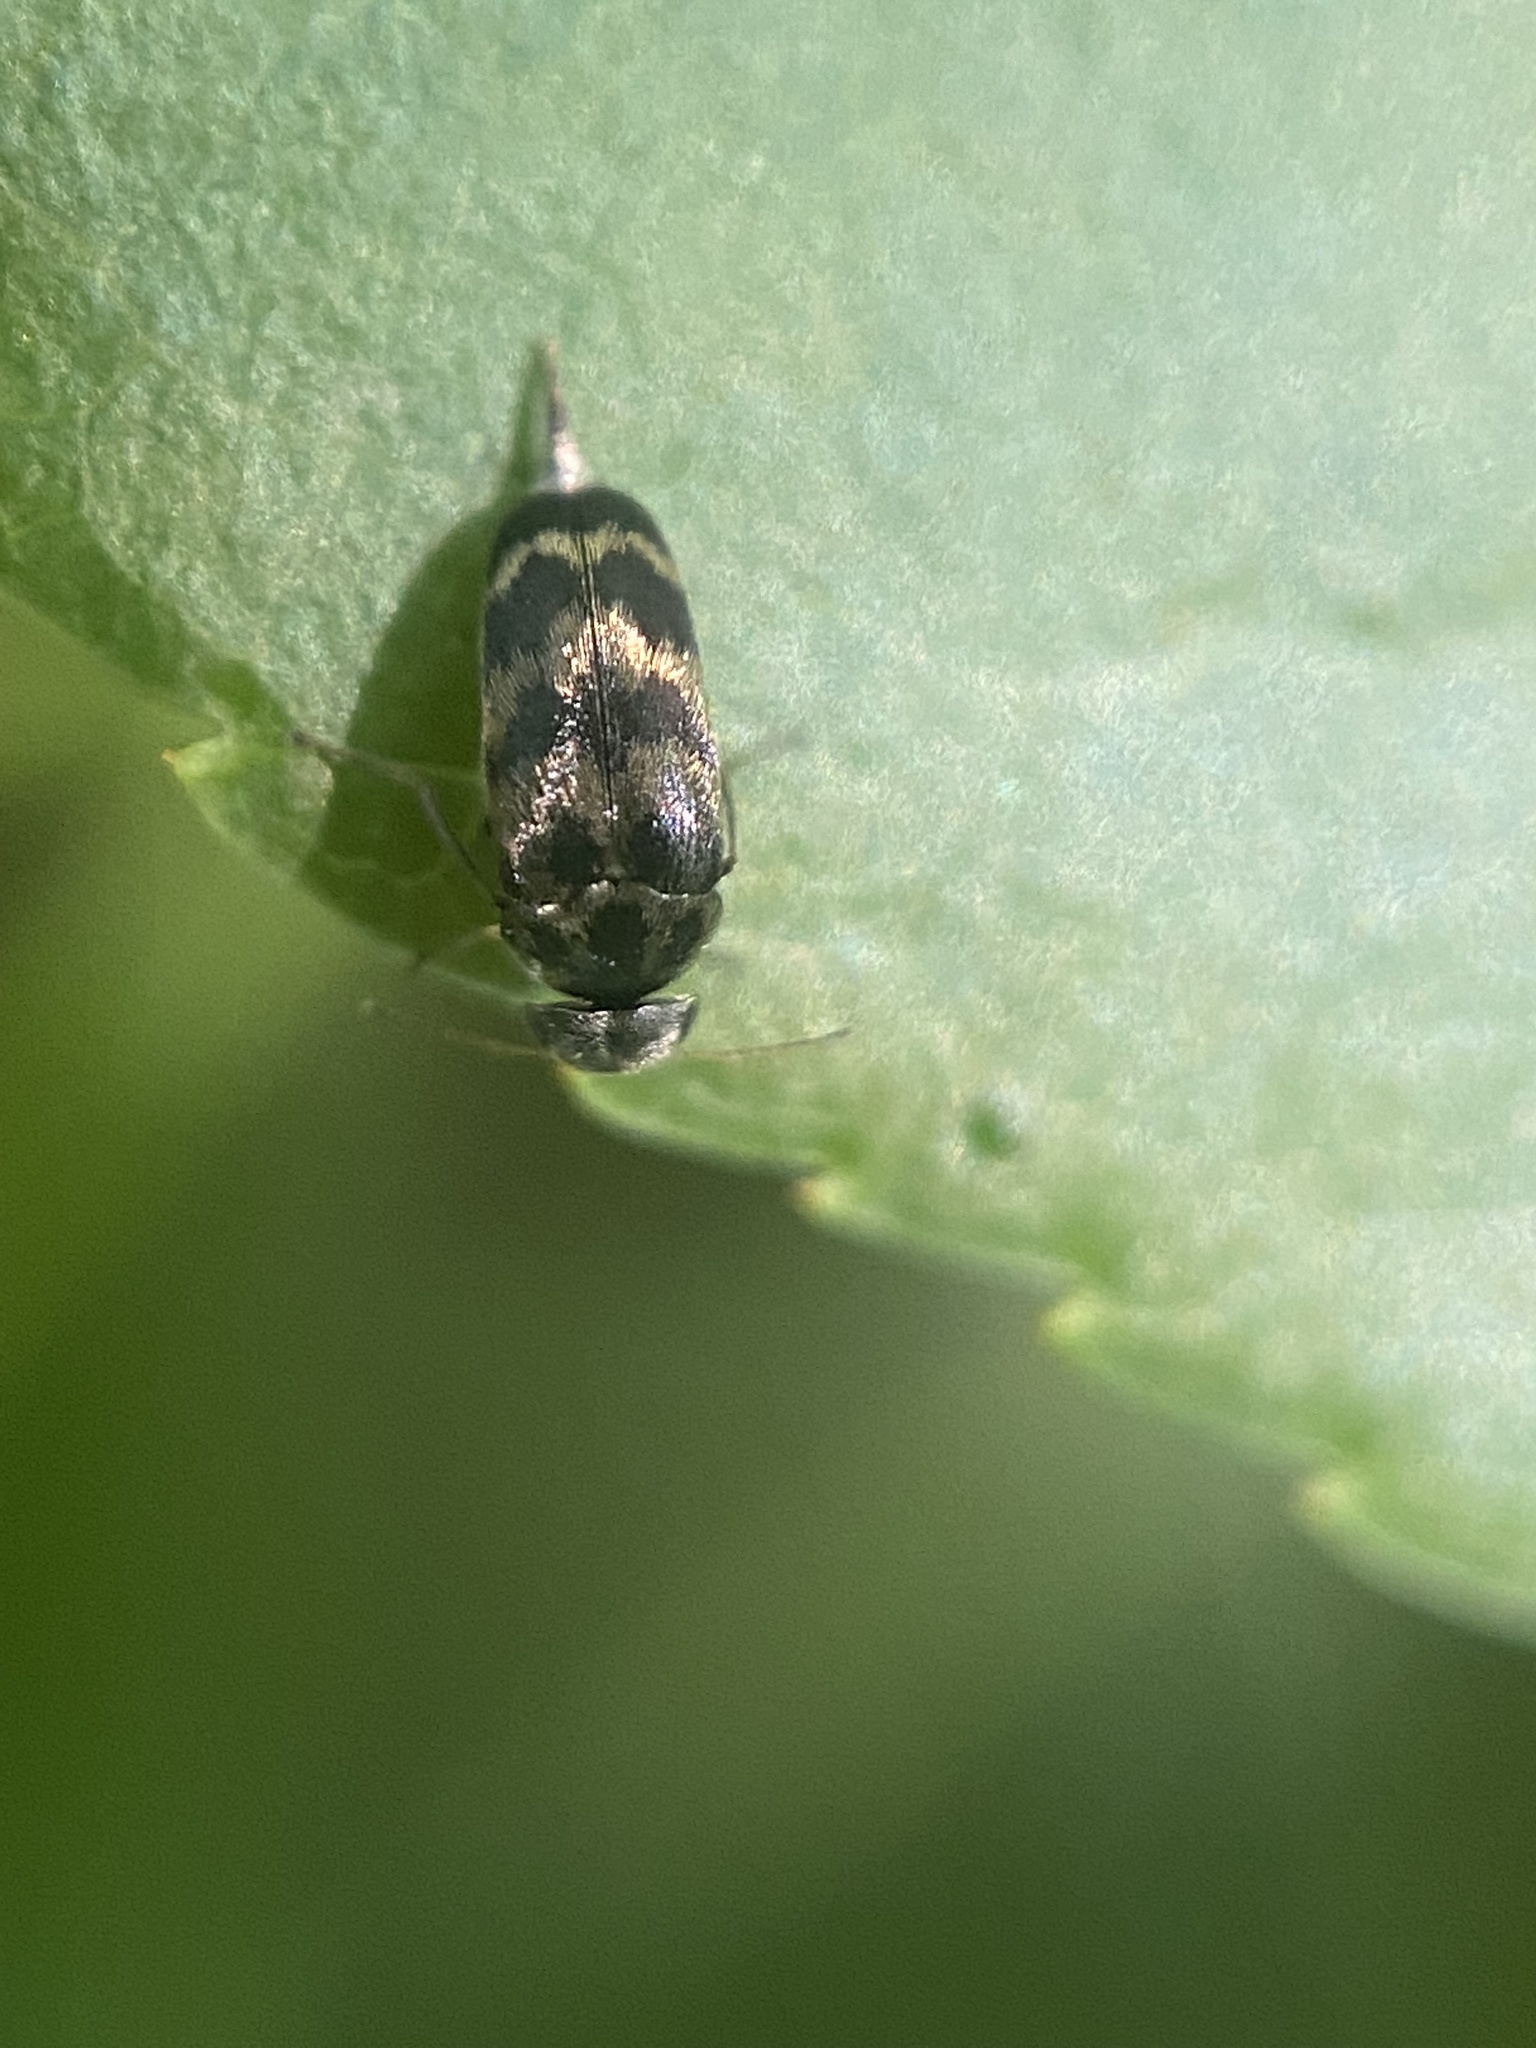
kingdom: Animalia
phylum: Arthropoda
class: Insecta
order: Coleoptera
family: Mordellidae
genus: Paramordellaria
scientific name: Paramordellaria triloba
